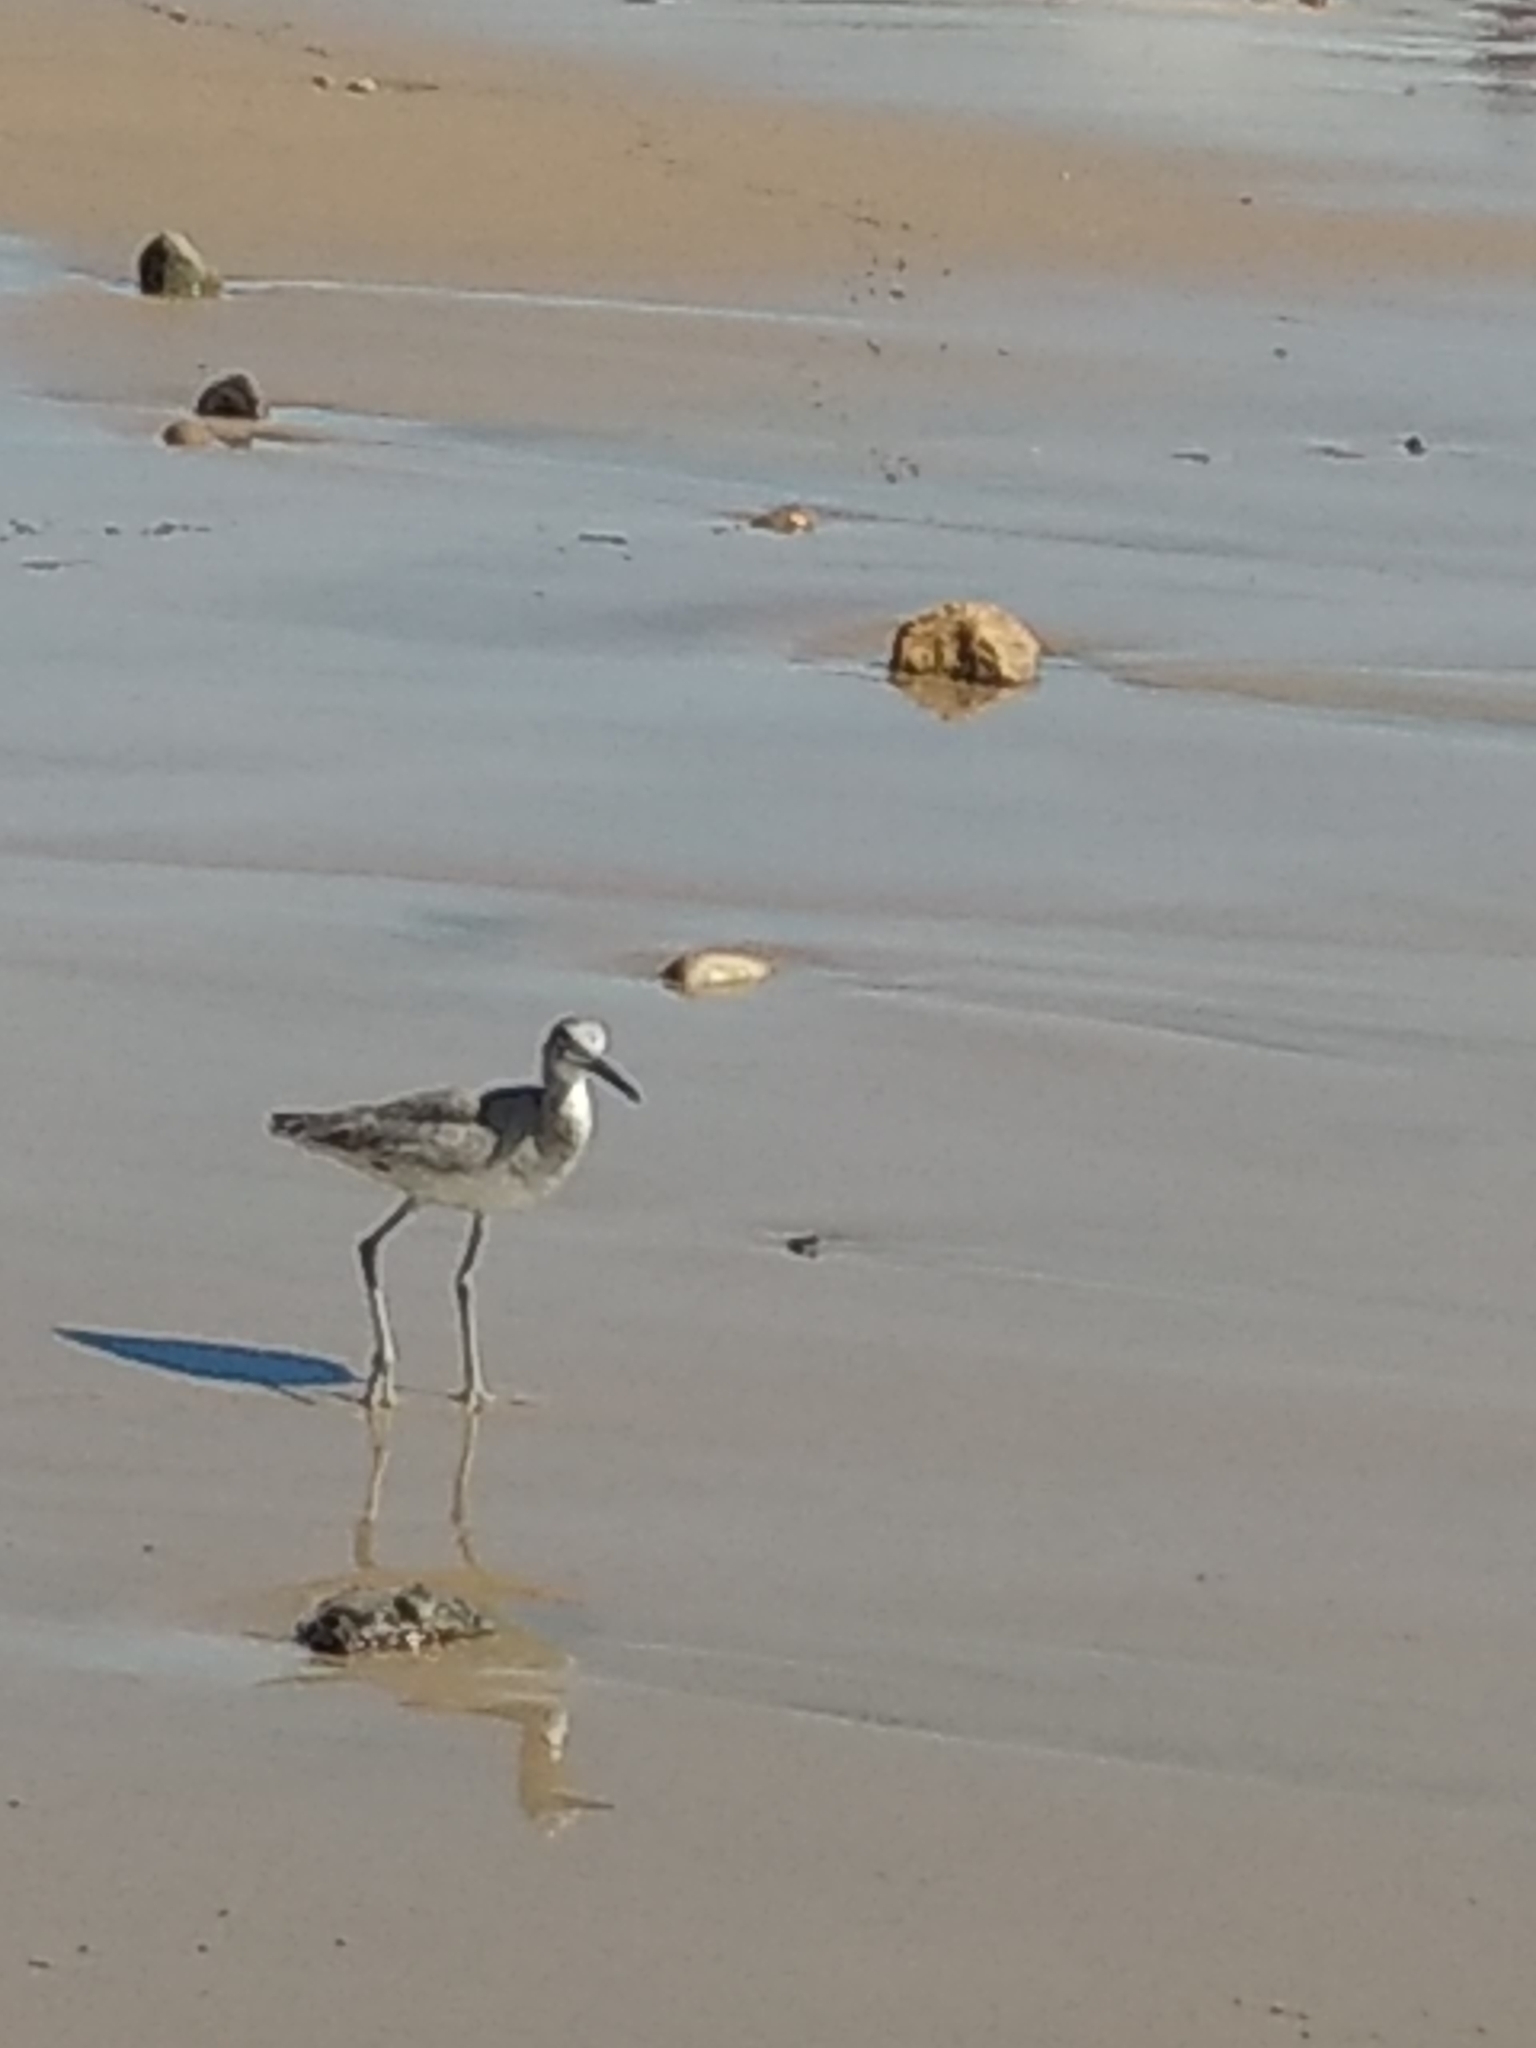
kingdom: Animalia
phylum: Chordata
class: Aves
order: Charadriiformes
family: Scolopacidae
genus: Tringa
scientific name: Tringa semipalmata
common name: Willet
